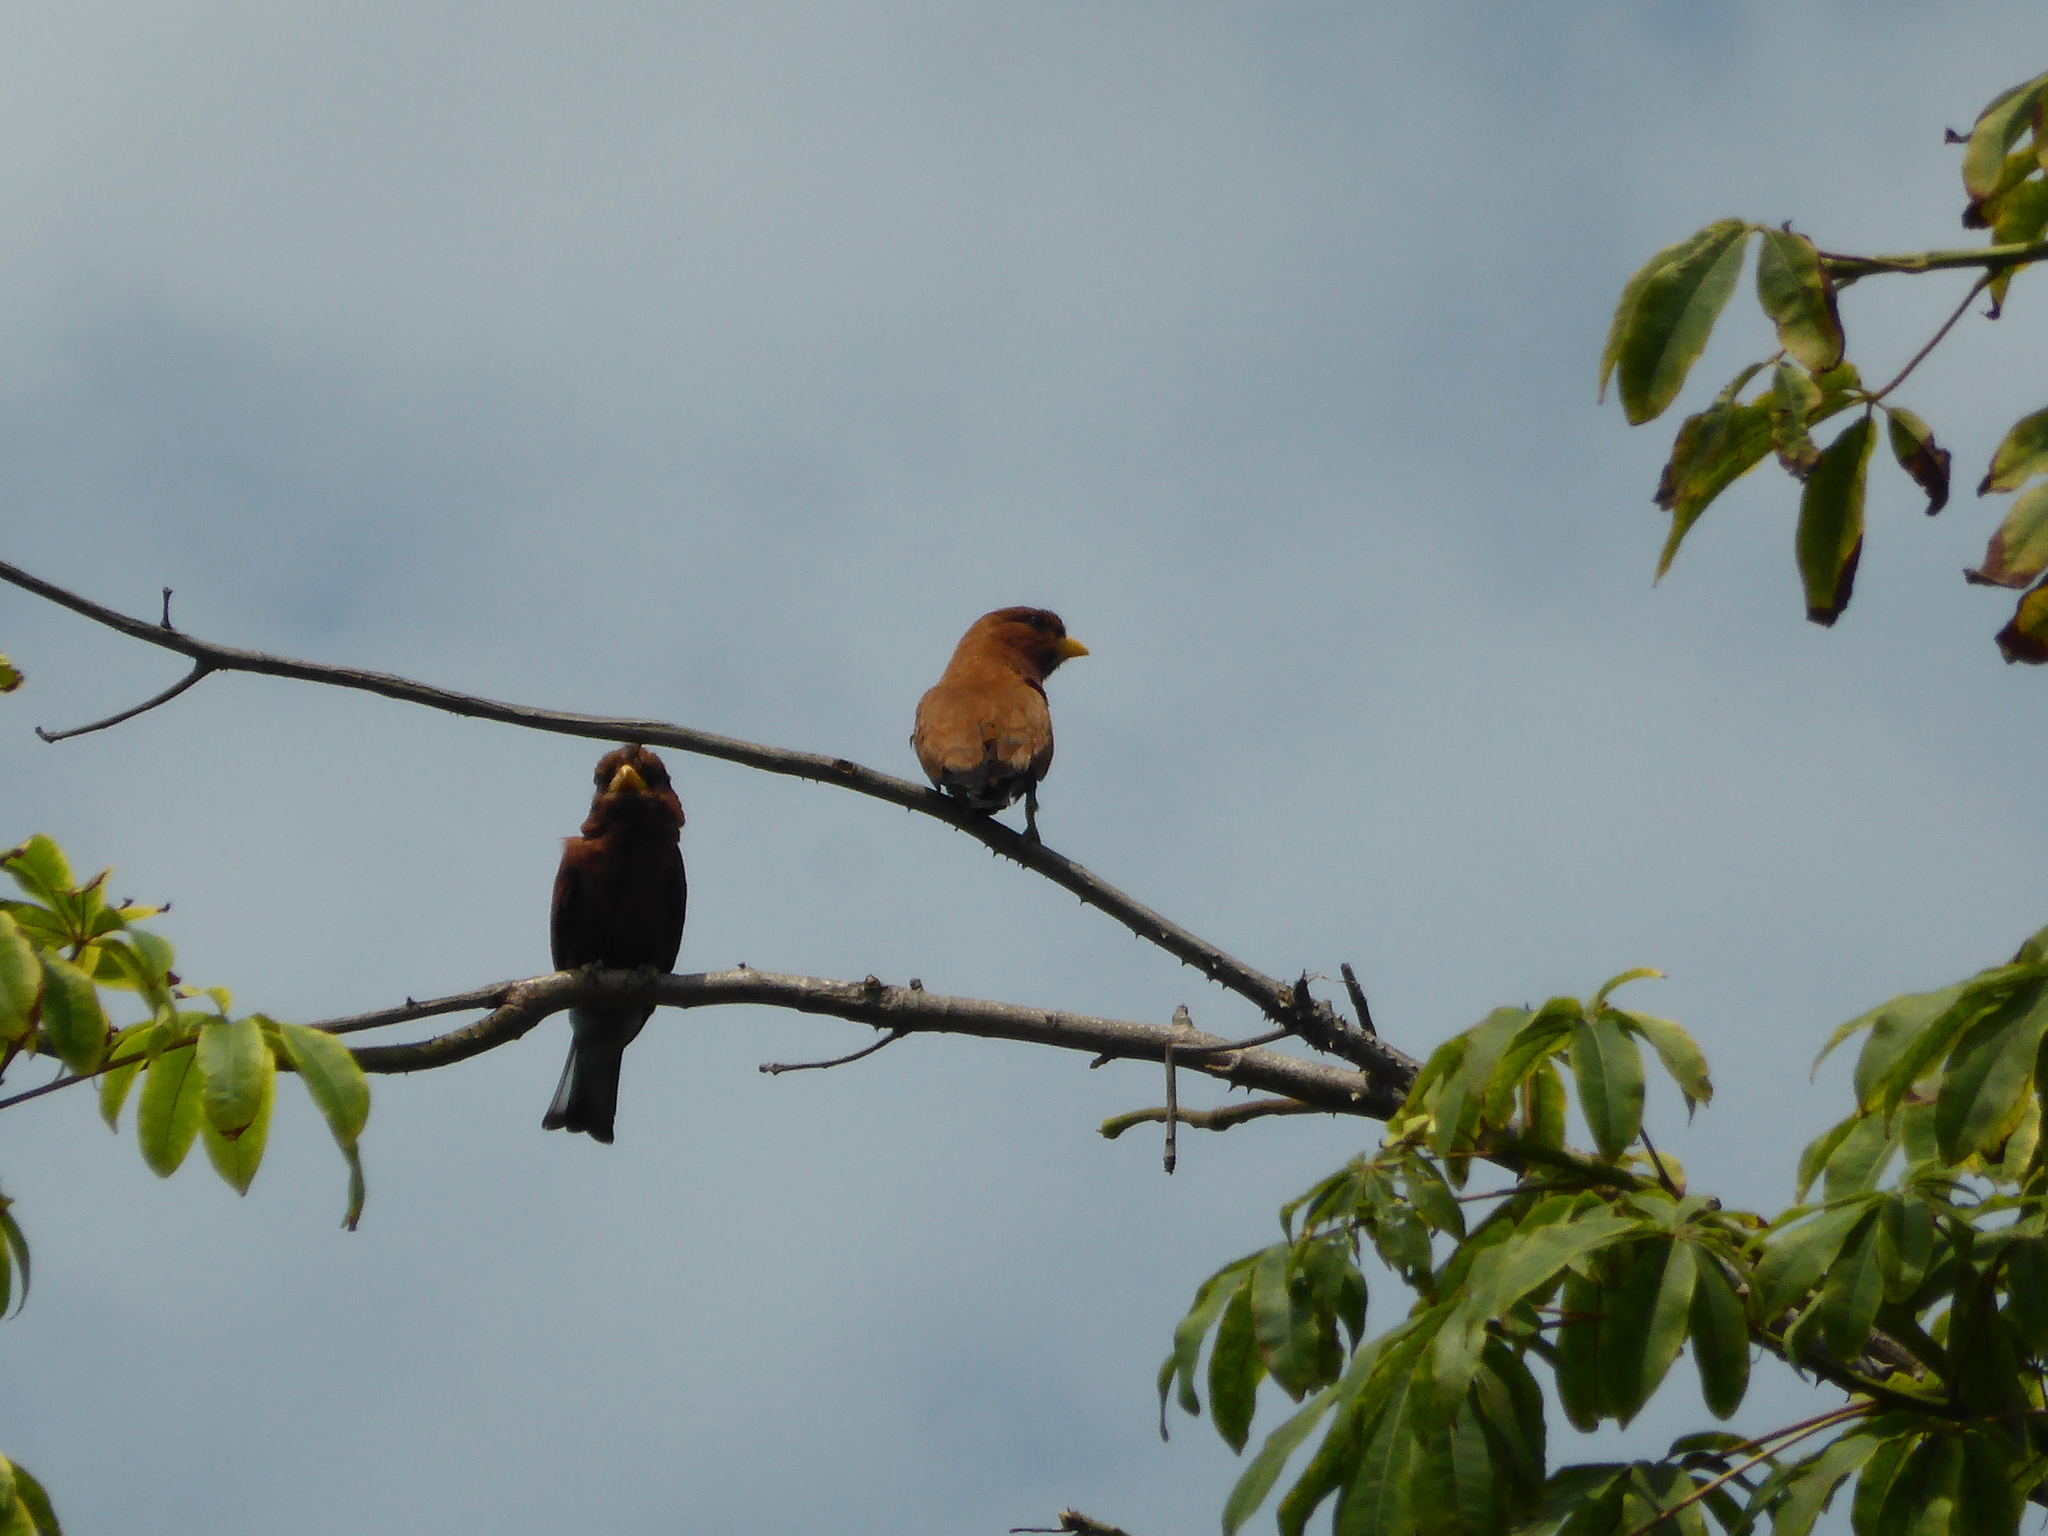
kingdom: Animalia
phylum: Chordata
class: Aves
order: Coraciiformes
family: Coraciidae
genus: Eurystomus
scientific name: Eurystomus glaucurus
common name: Broad-billed roller
